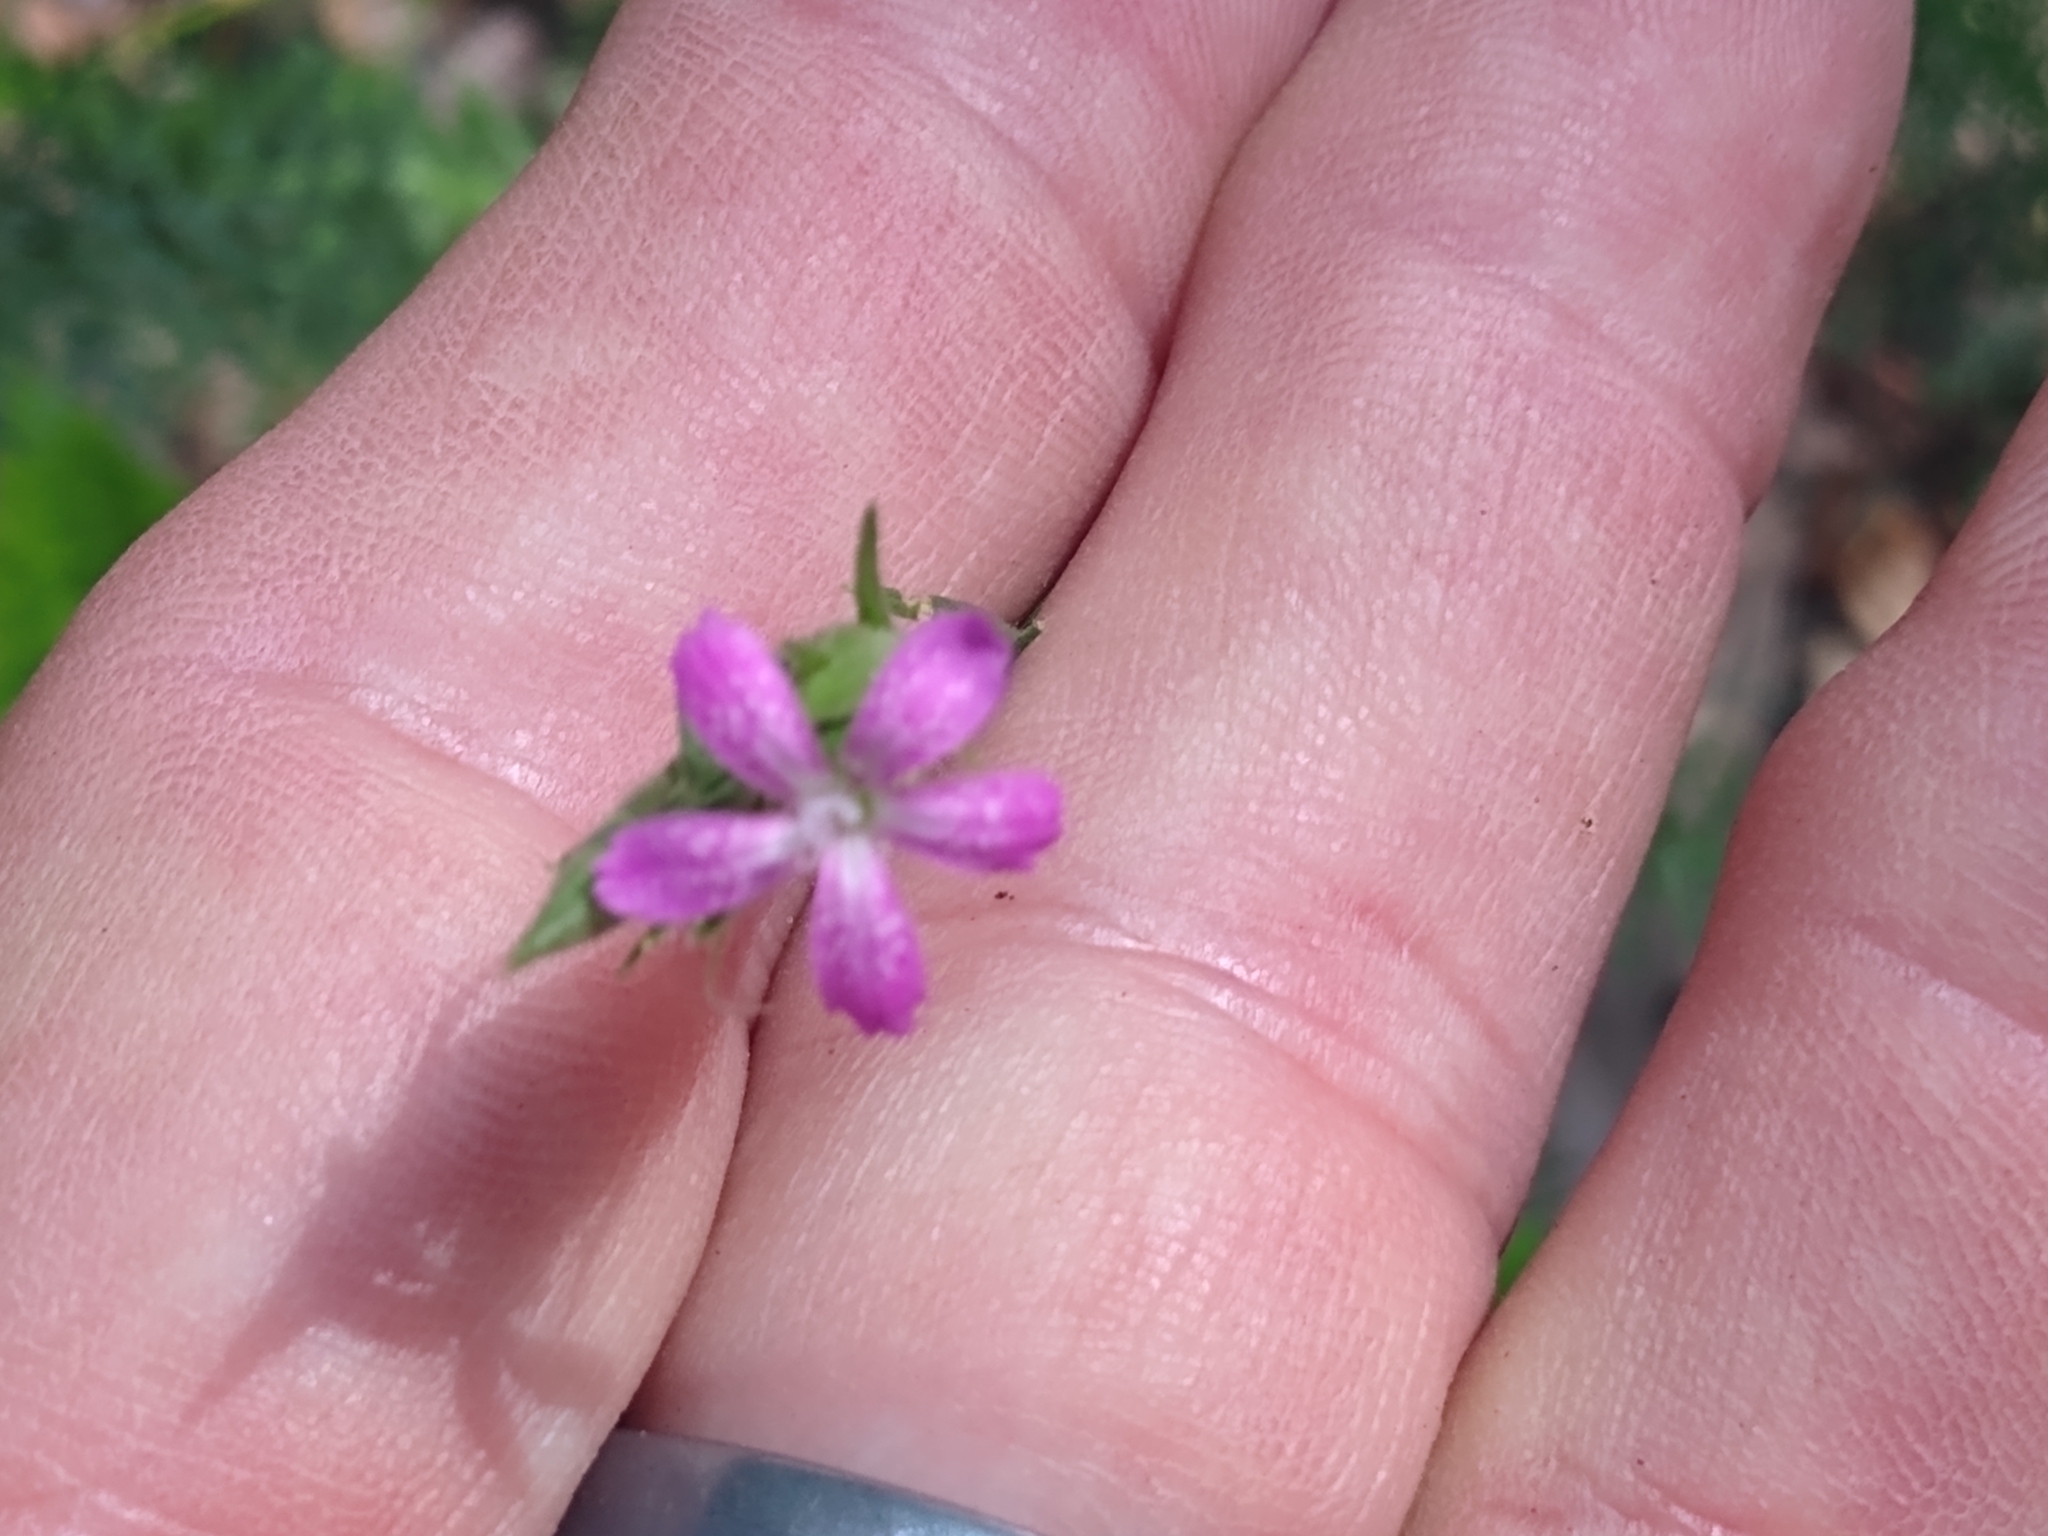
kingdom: Plantae
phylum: Tracheophyta
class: Magnoliopsida
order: Caryophyllales
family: Caryophyllaceae
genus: Dianthus
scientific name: Dianthus armeria
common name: Deptford pink
